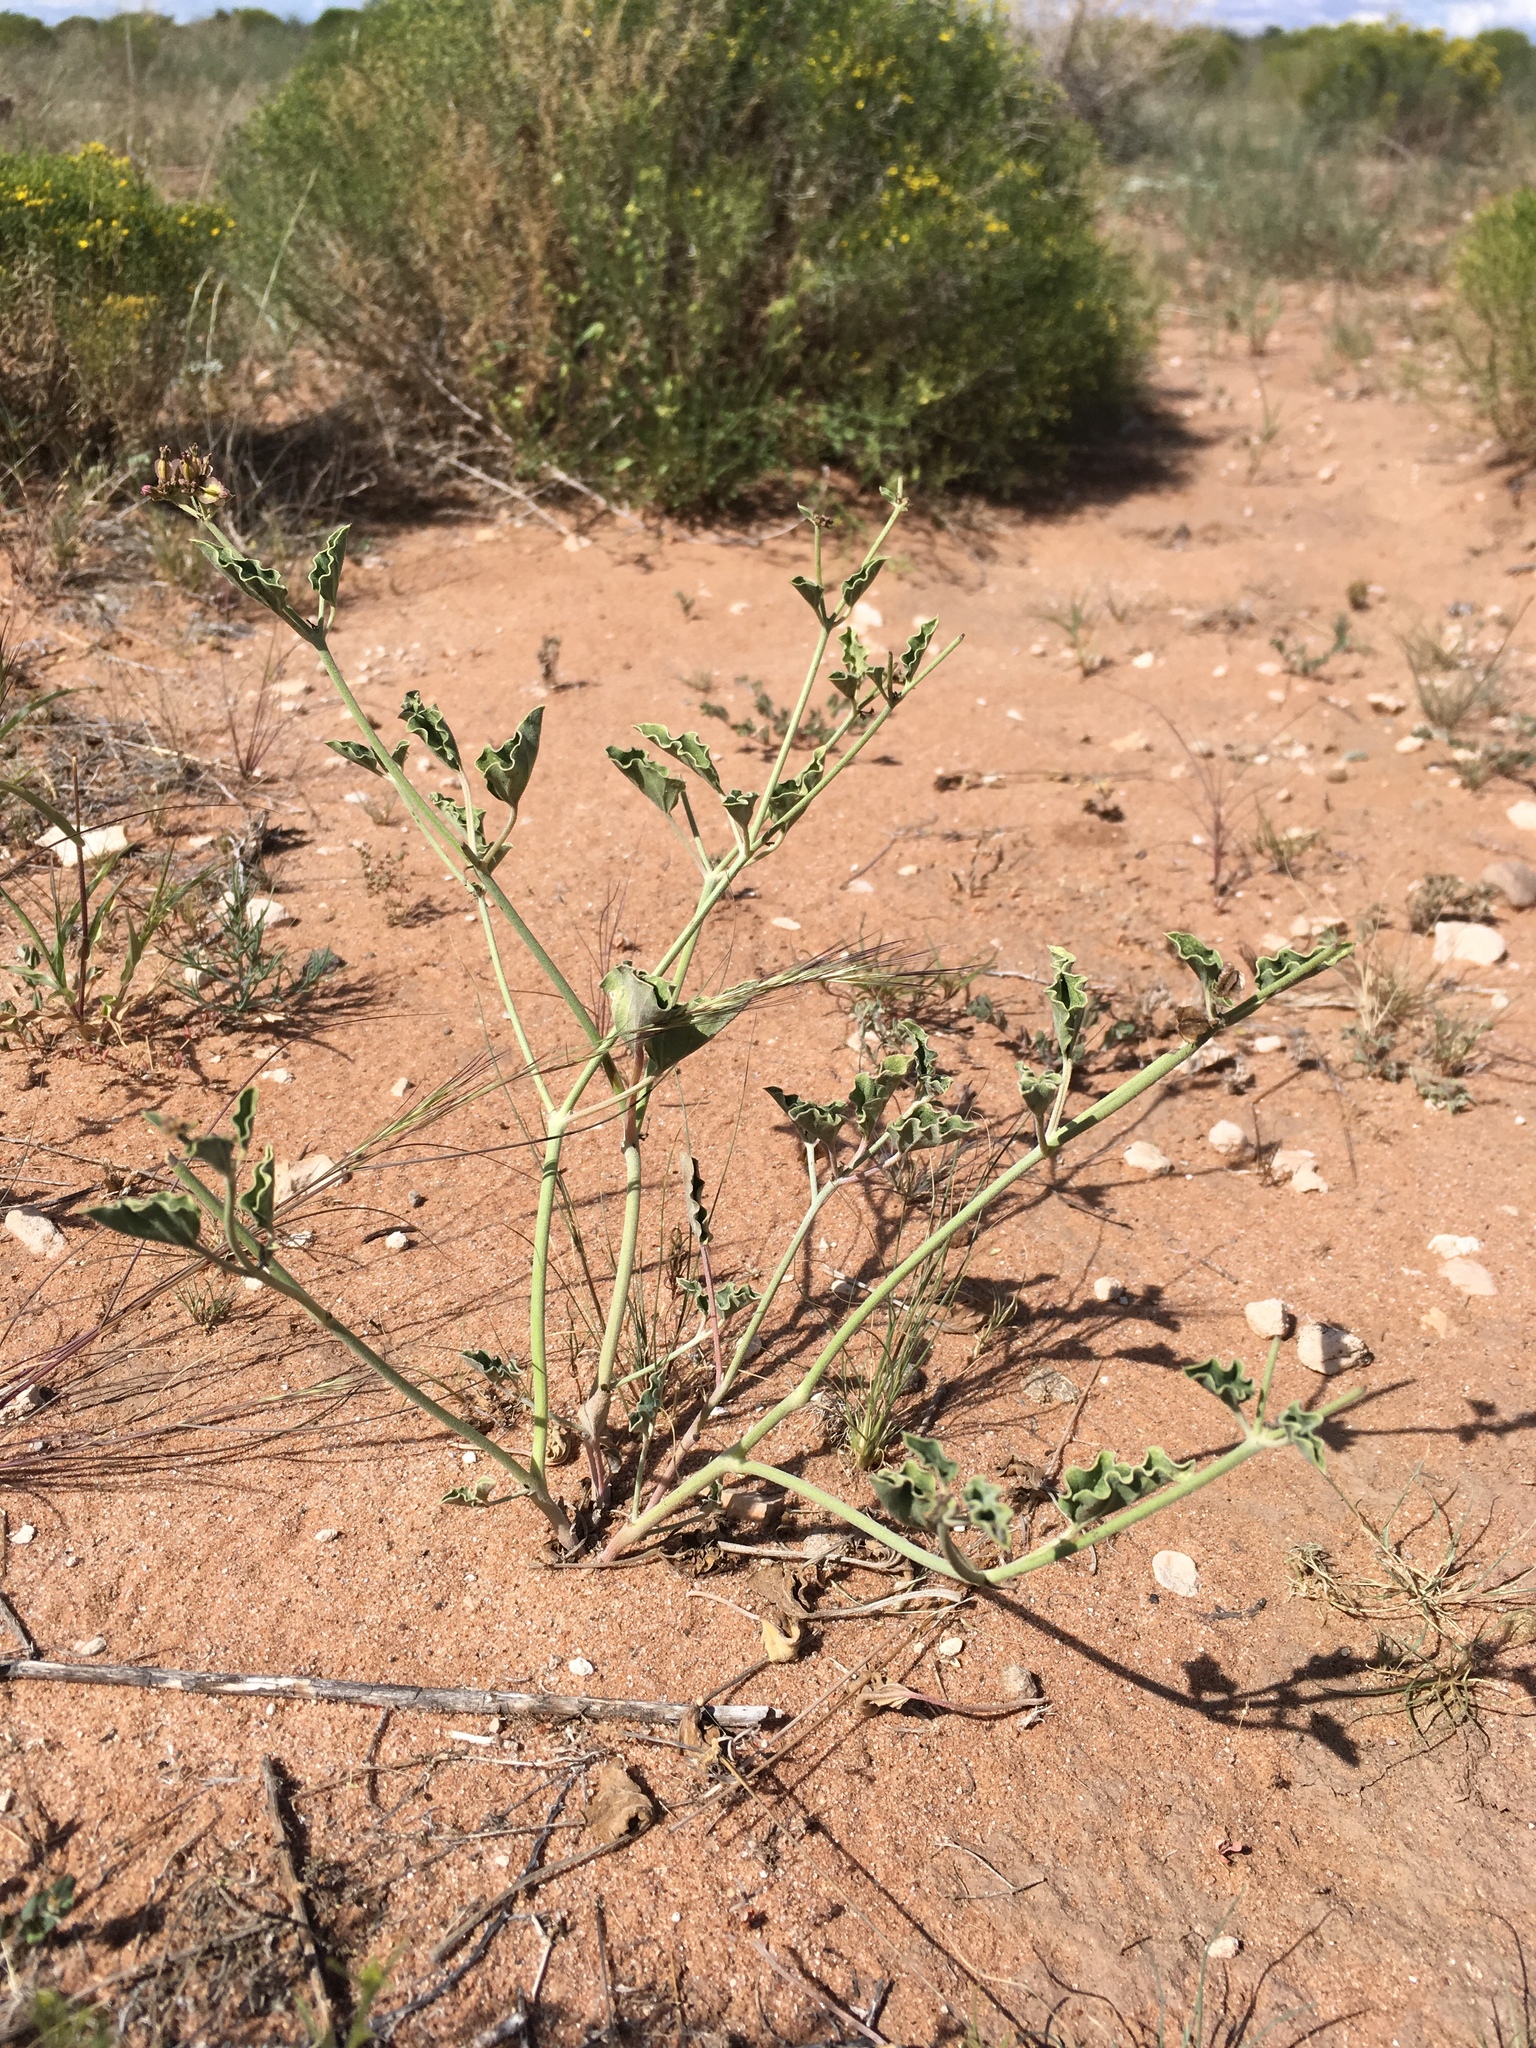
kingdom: Plantae
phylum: Tracheophyta
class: Magnoliopsida
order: Caryophyllales
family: Nyctaginaceae
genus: Acleisanthes
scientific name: Acleisanthes chenopodioides
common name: Goosefoot moonpod
